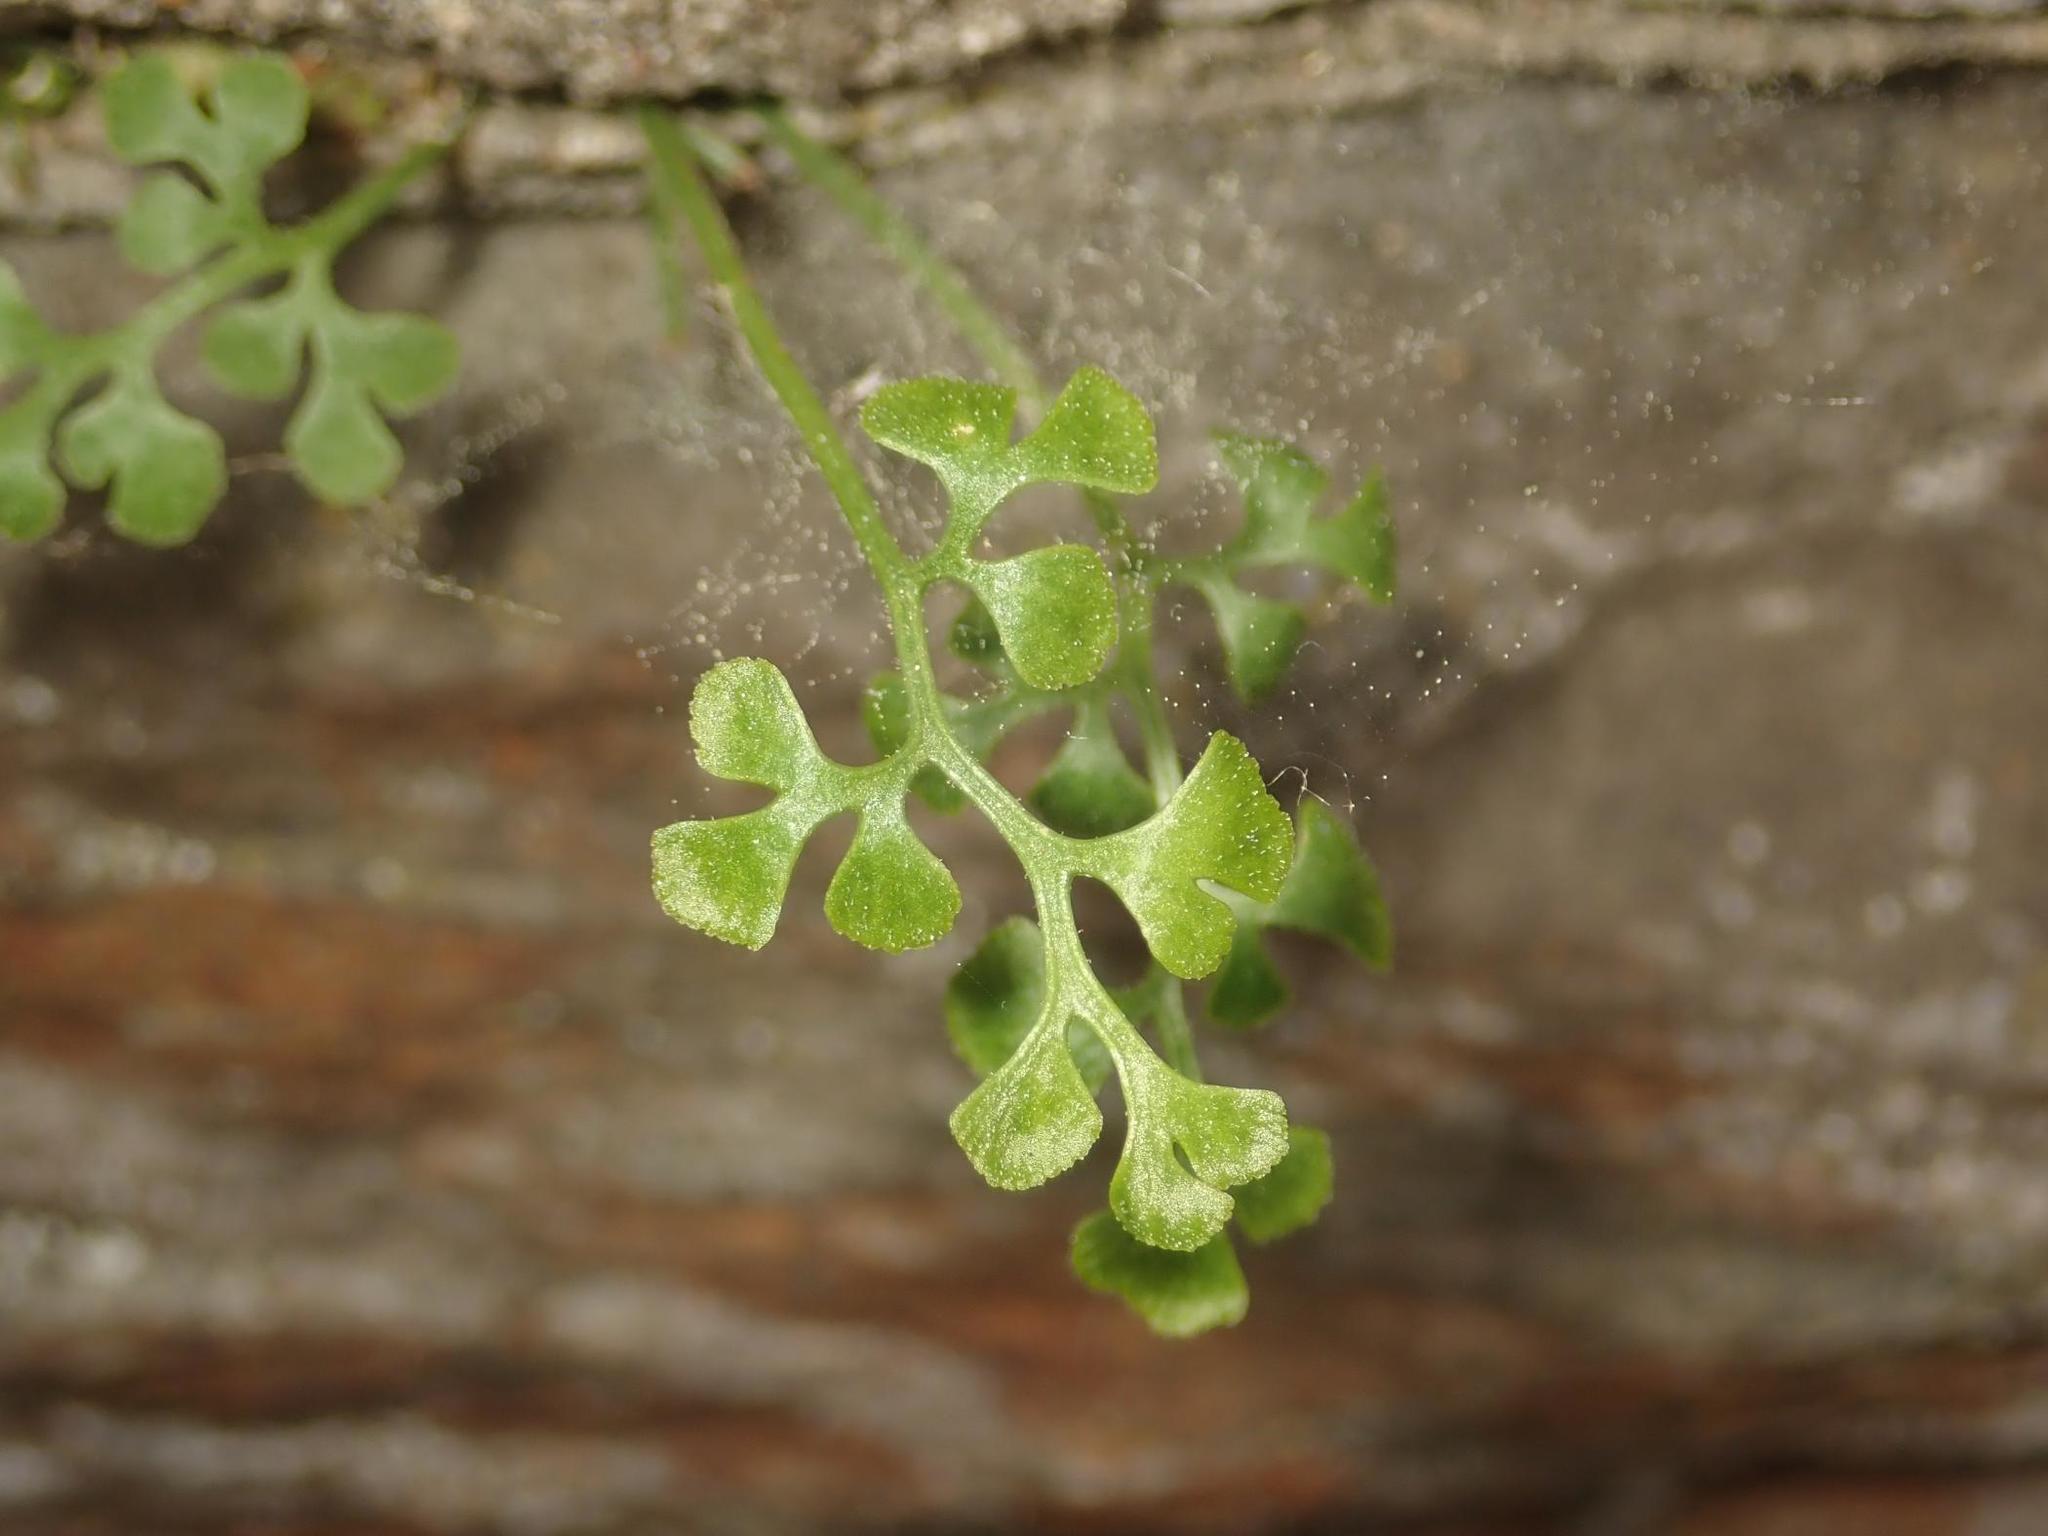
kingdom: Plantae
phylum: Tracheophyta
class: Polypodiopsida
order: Polypodiales
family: Aspleniaceae
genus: Asplenium
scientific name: Asplenium ruta-muraria
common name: Wall-rue
